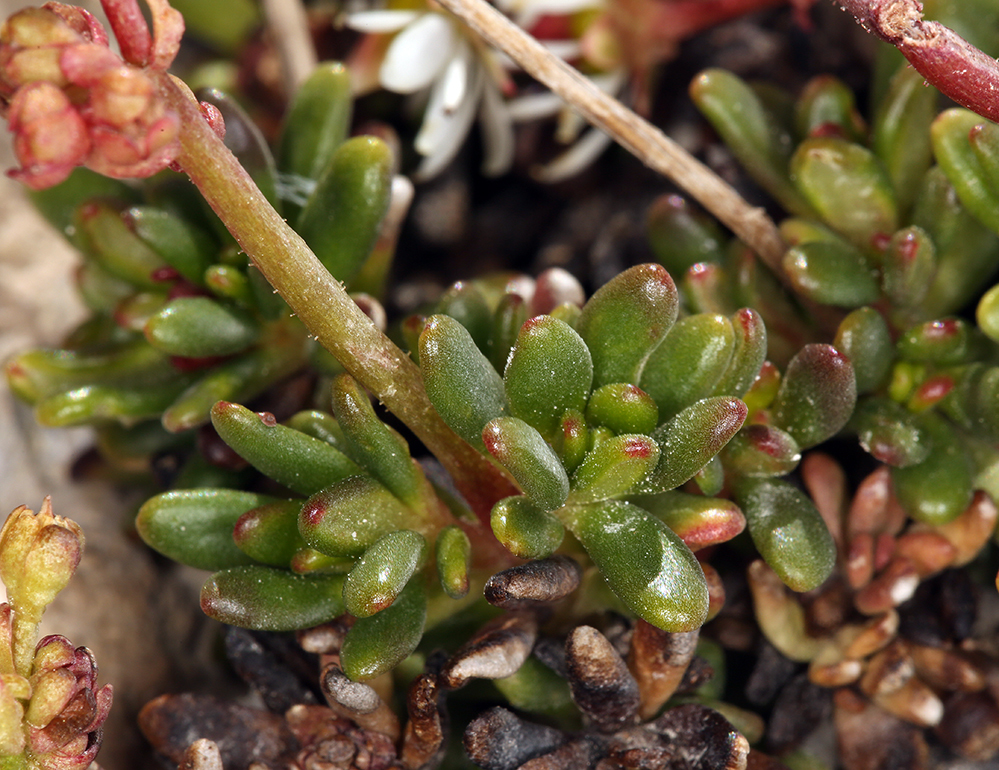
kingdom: Plantae
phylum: Tracheophyta
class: Magnoliopsida
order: Saxifragales
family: Saxifragaceae
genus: Micranthes
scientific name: Micranthes tolmiei
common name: Tolmie's saxifrage
